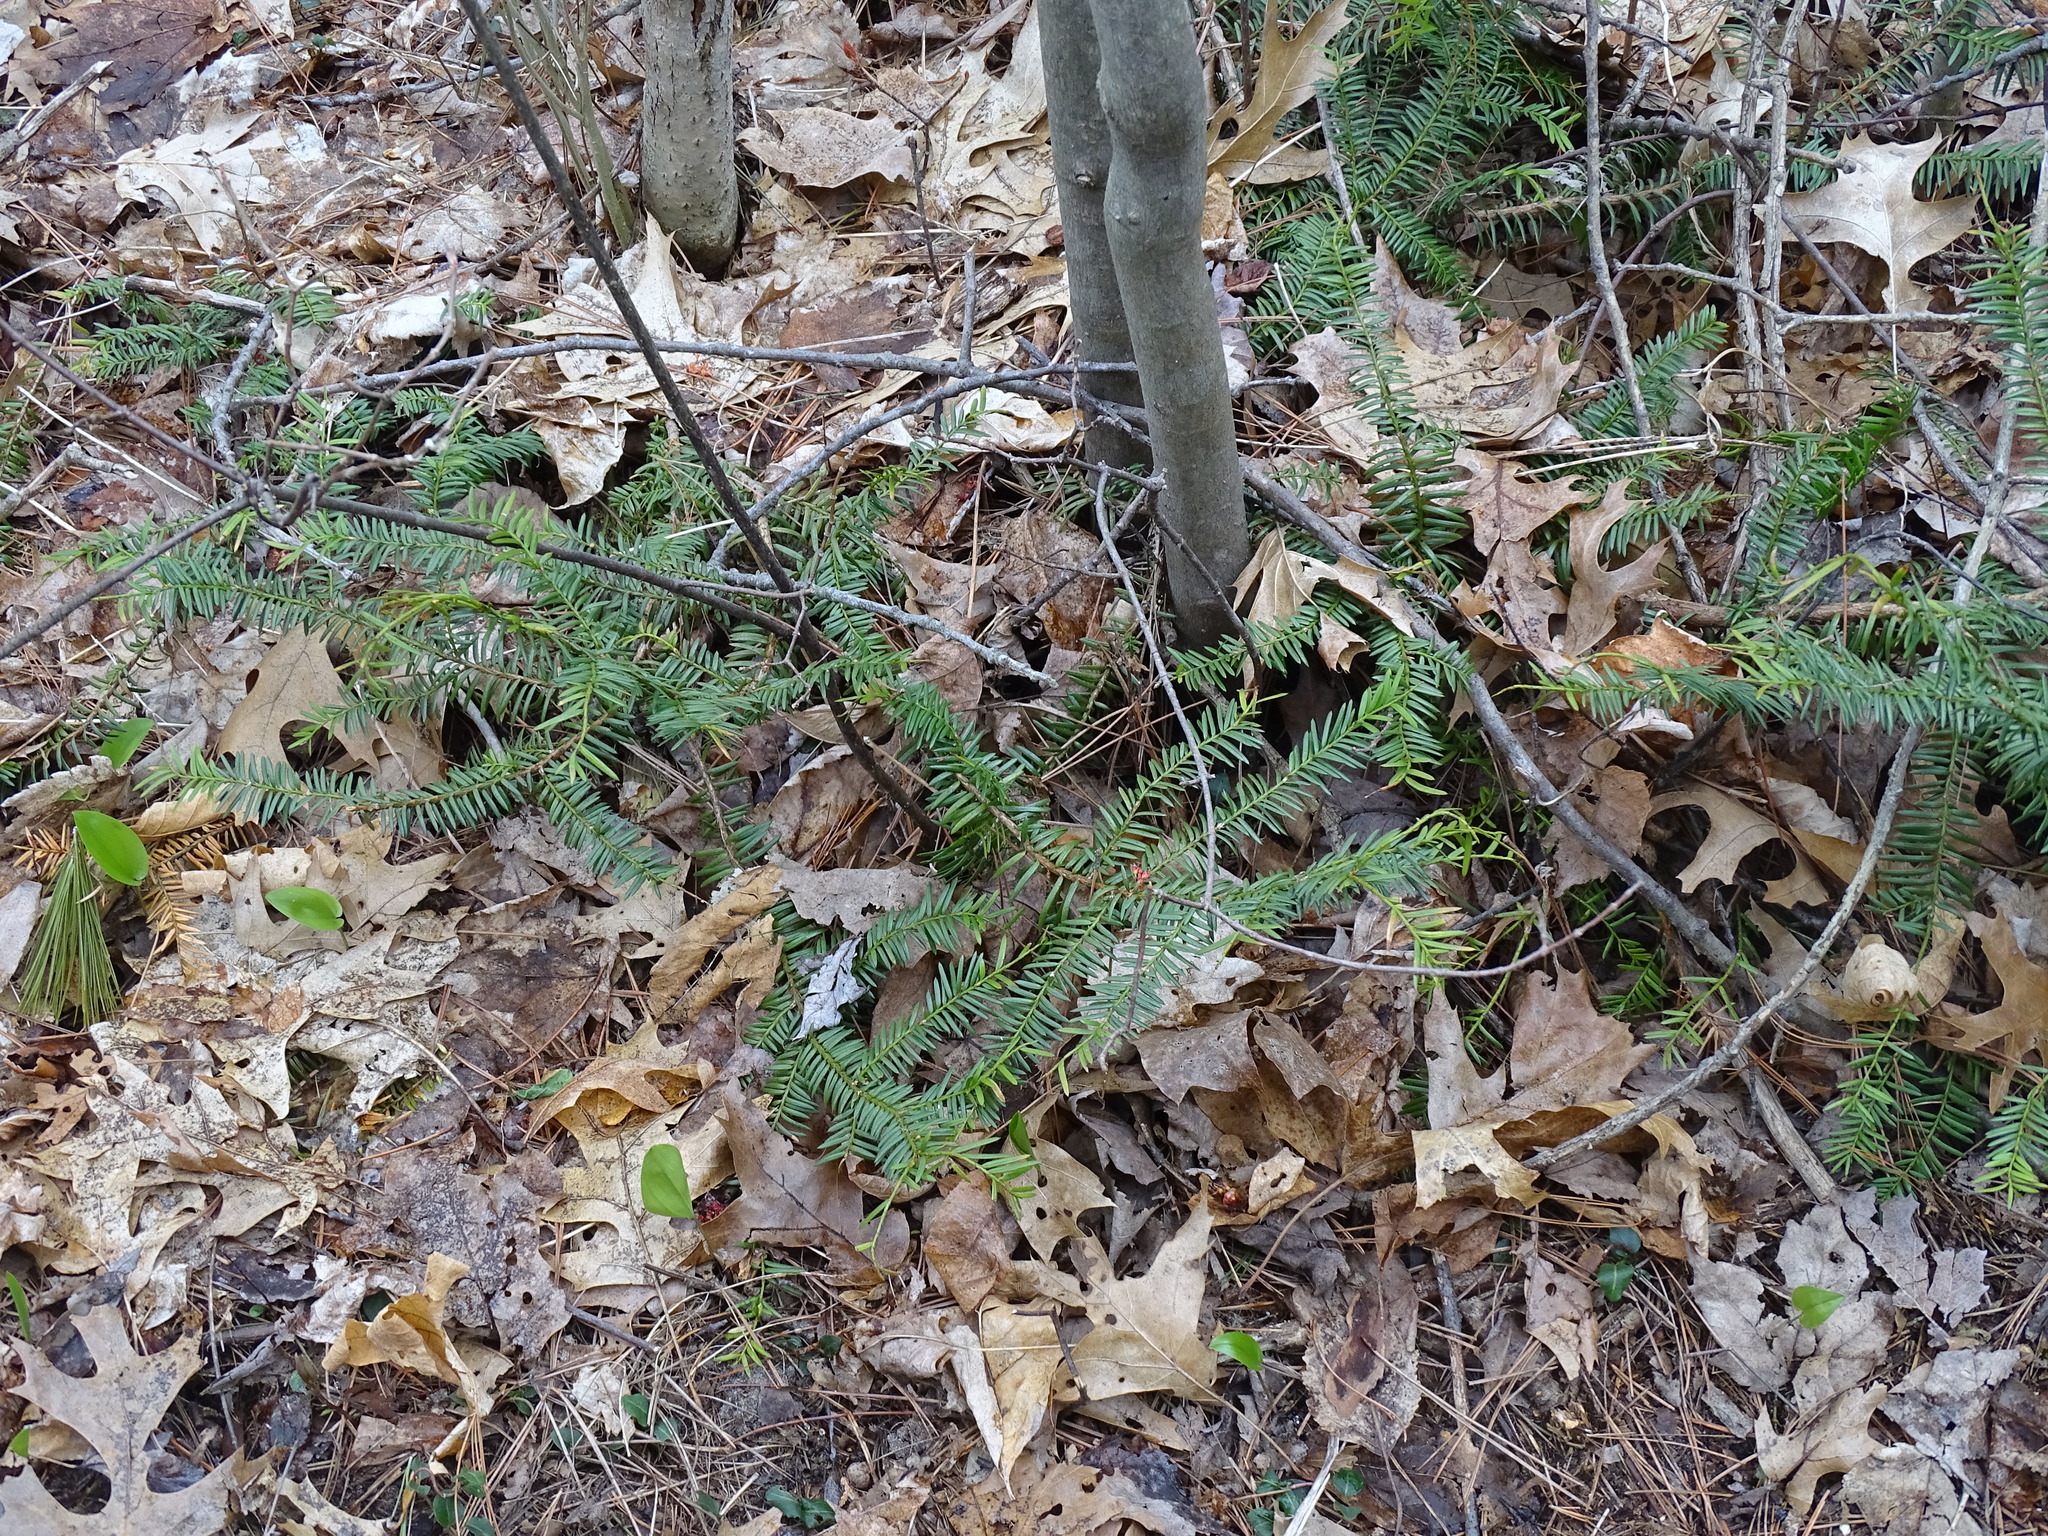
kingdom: Plantae
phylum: Tracheophyta
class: Pinopsida
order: Pinales
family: Taxaceae
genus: Taxus
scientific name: Taxus canadensis
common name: American yew
